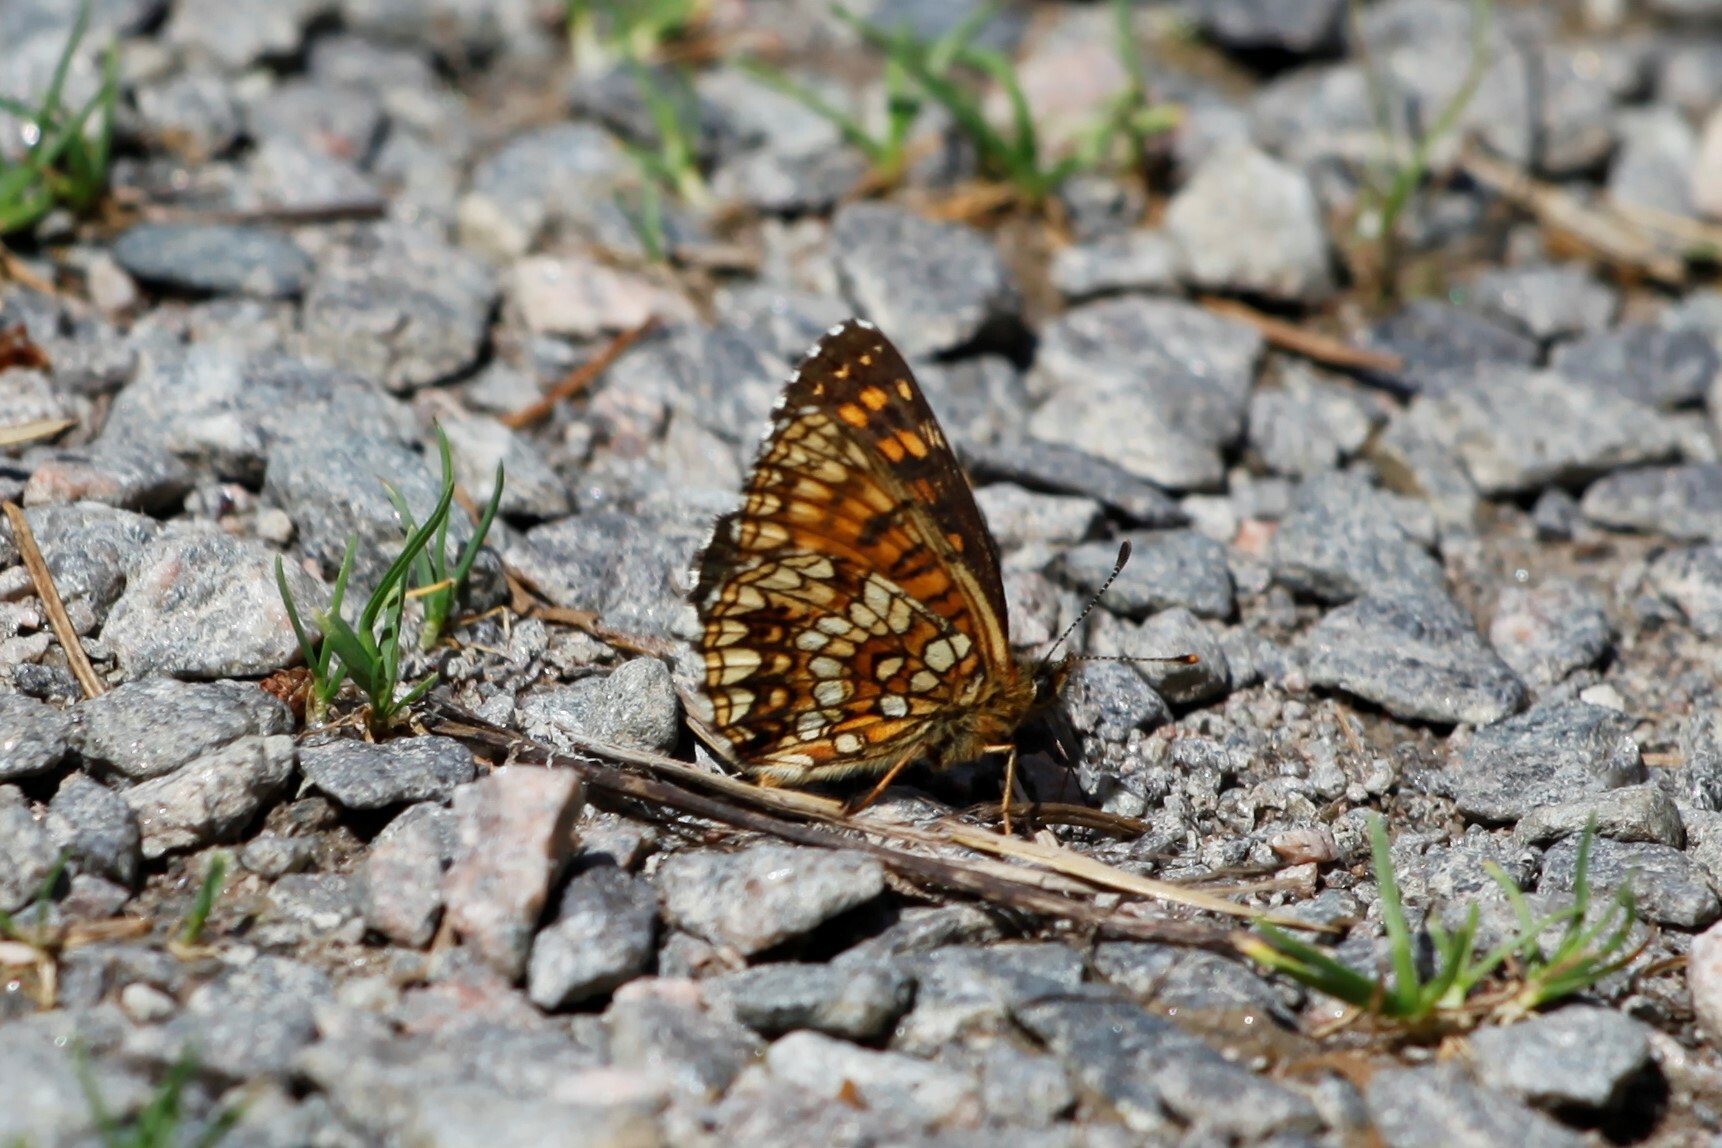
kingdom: Animalia
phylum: Arthropoda
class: Insecta
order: Lepidoptera
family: Nymphalidae
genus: Melitaea
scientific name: Melitaea diamina
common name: False heath fritillary
